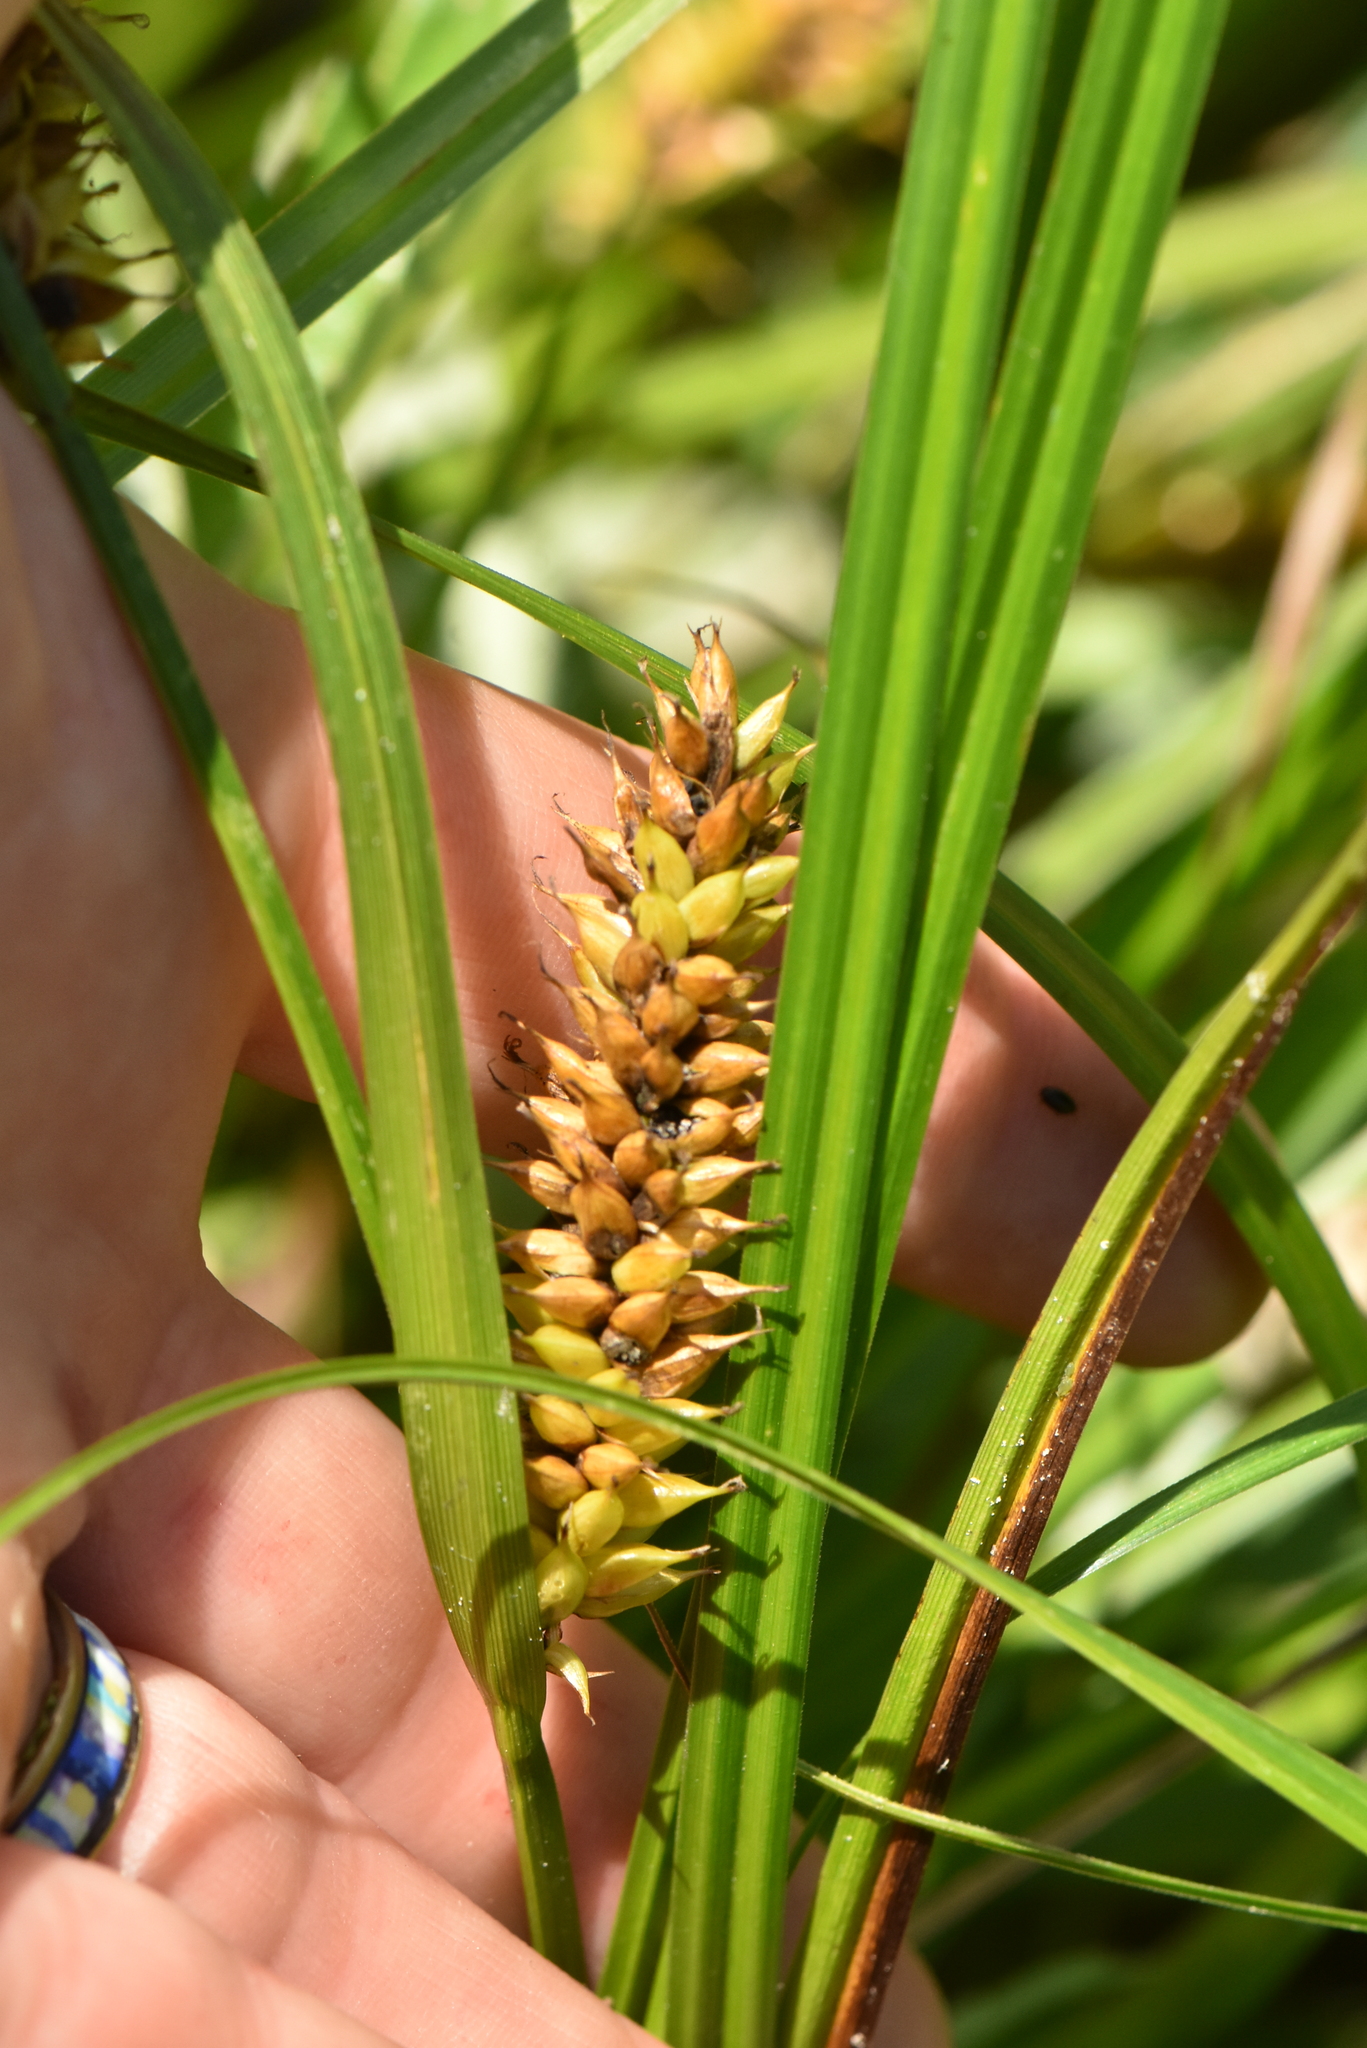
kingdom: Plantae
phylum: Tracheophyta
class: Liliopsida
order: Poales
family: Cyperaceae
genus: Carex
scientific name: Carex vesicaria
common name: Bladder-sedge
